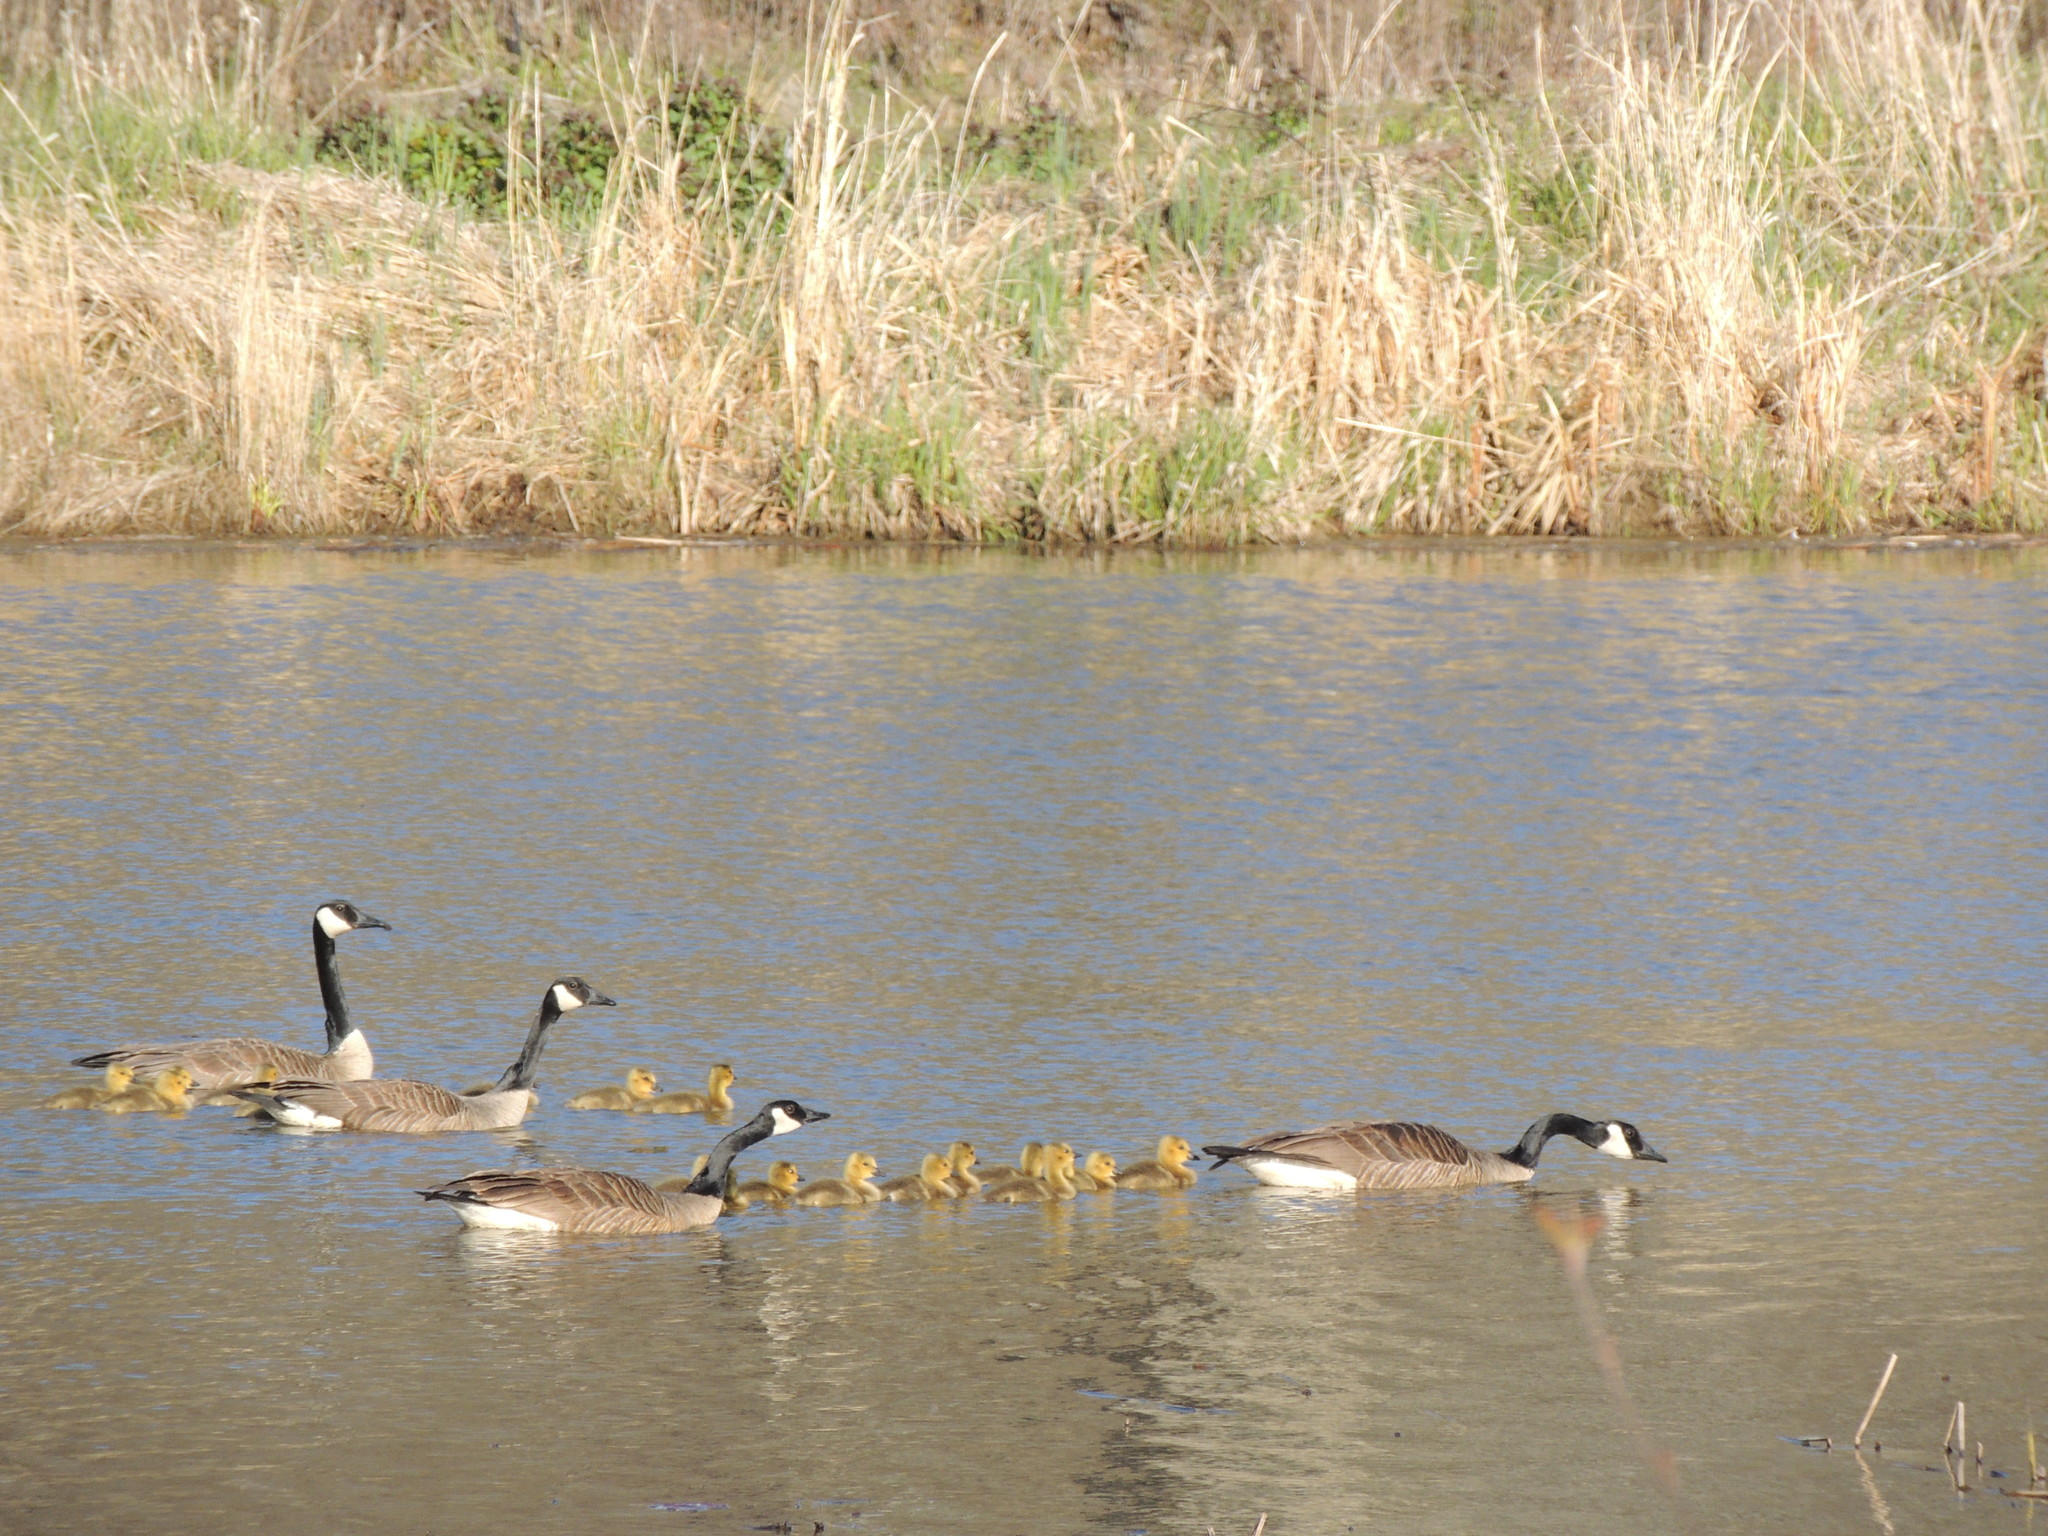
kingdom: Animalia
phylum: Chordata
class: Aves
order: Anseriformes
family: Anatidae
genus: Branta
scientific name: Branta canadensis
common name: Canada goose
